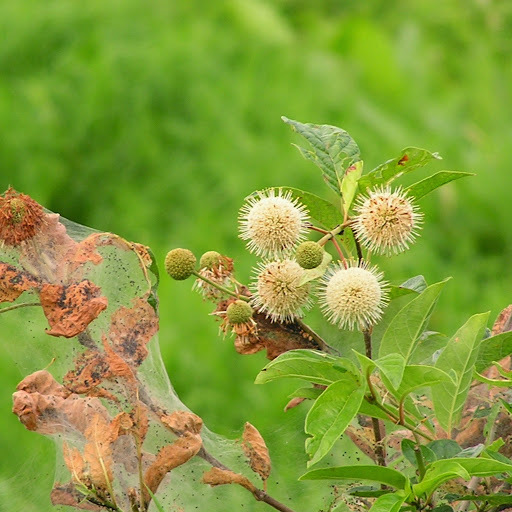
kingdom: Plantae
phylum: Tracheophyta
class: Magnoliopsida
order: Gentianales
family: Rubiaceae
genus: Cephalanthus
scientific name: Cephalanthus occidentalis
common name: Button-willow
